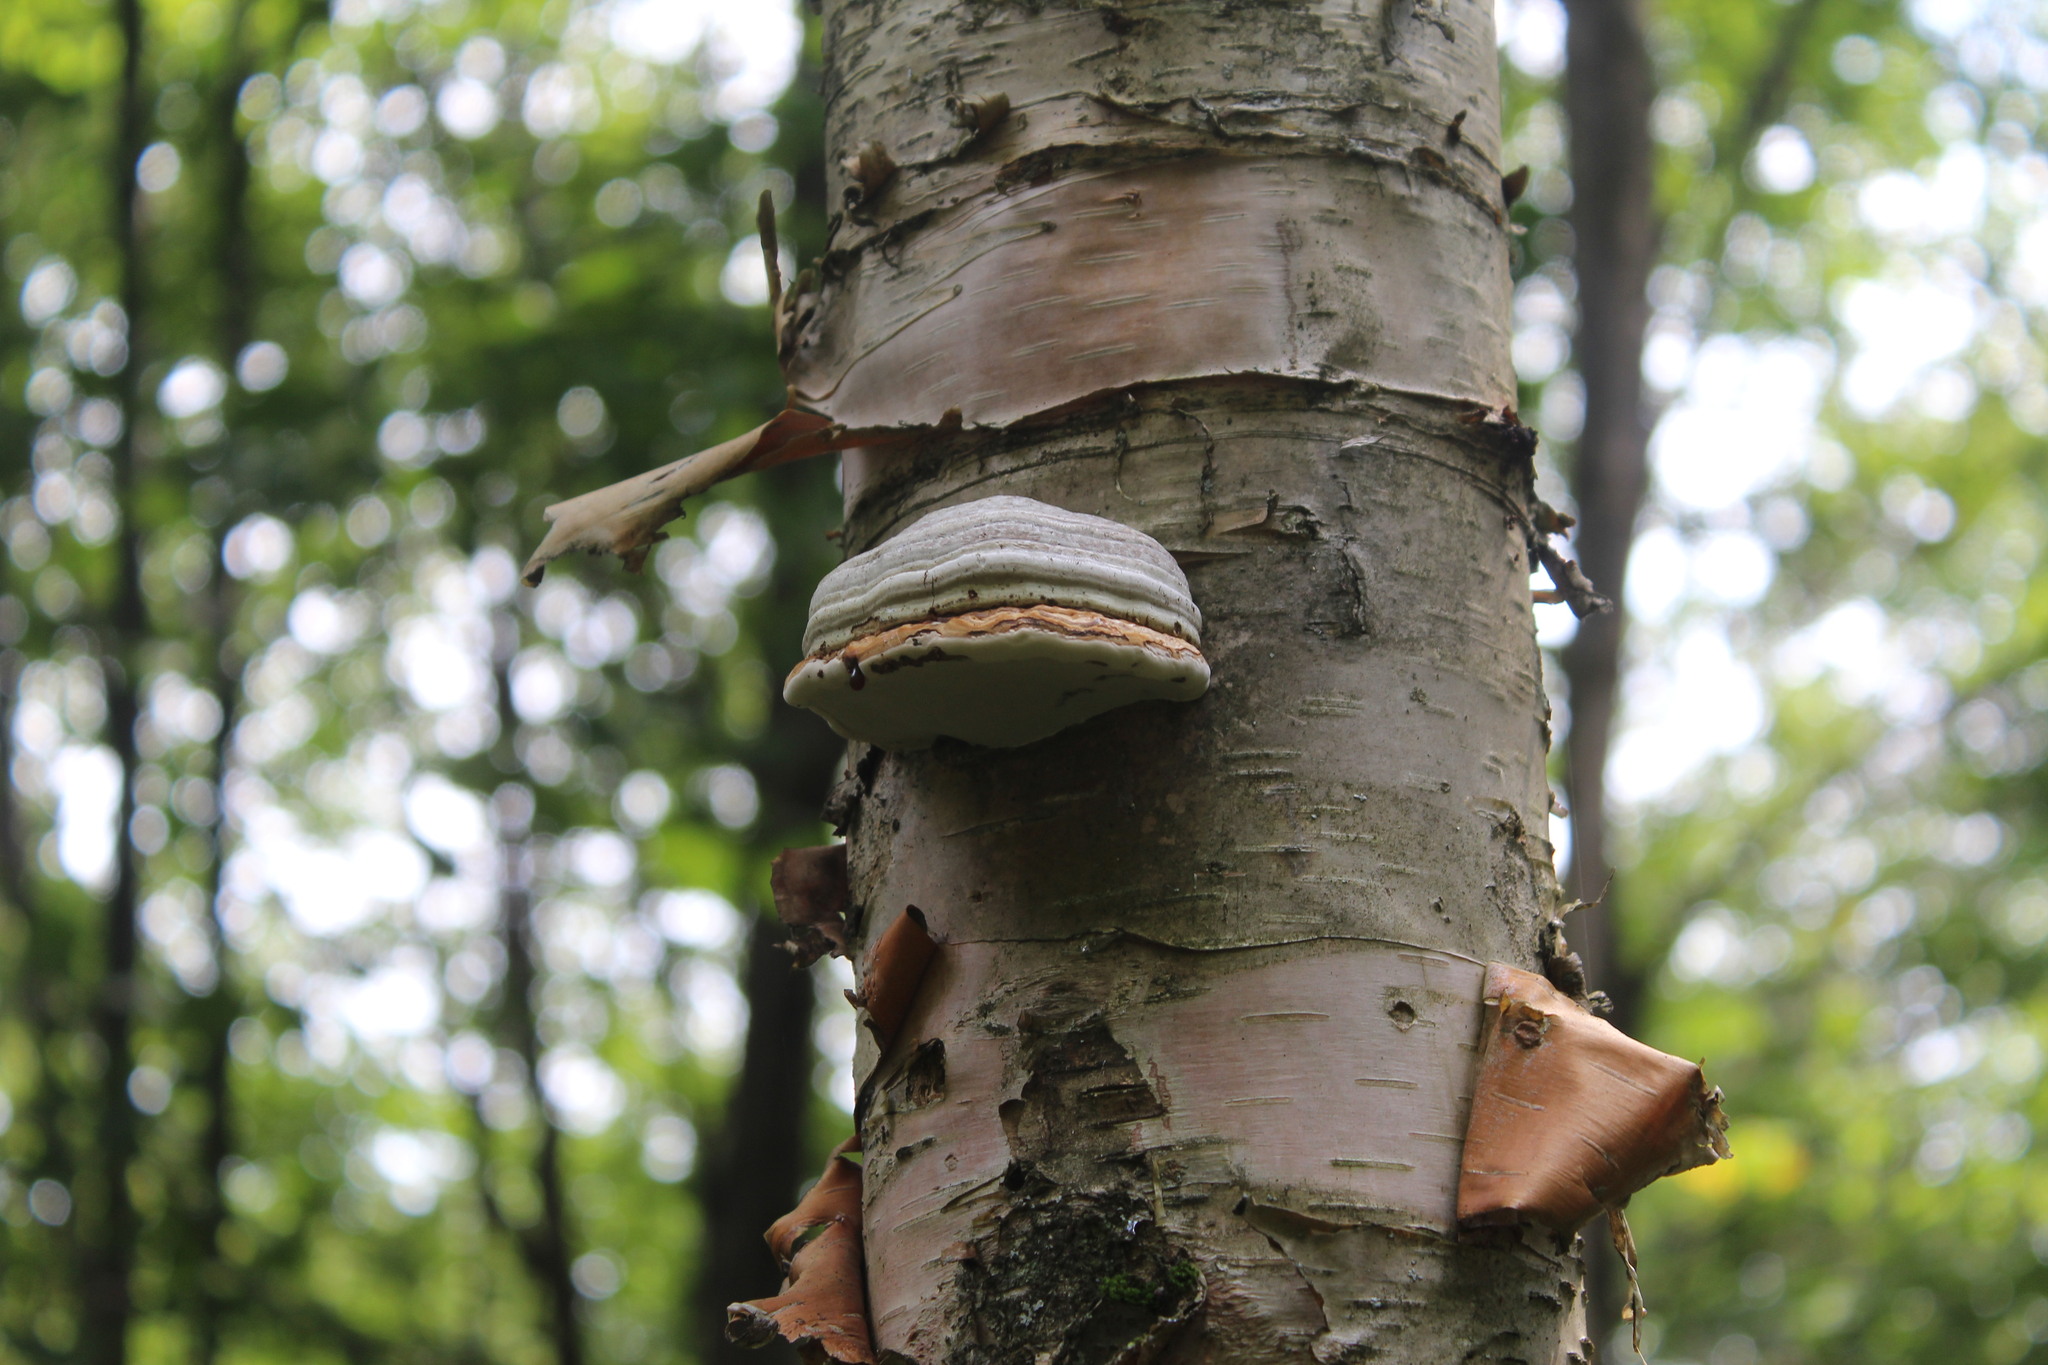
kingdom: Fungi
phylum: Basidiomycota
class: Agaricomycetes
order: Polyporales
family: Polyporaceae
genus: Fomes
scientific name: Fomes fomentarius
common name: Hoof fungus
